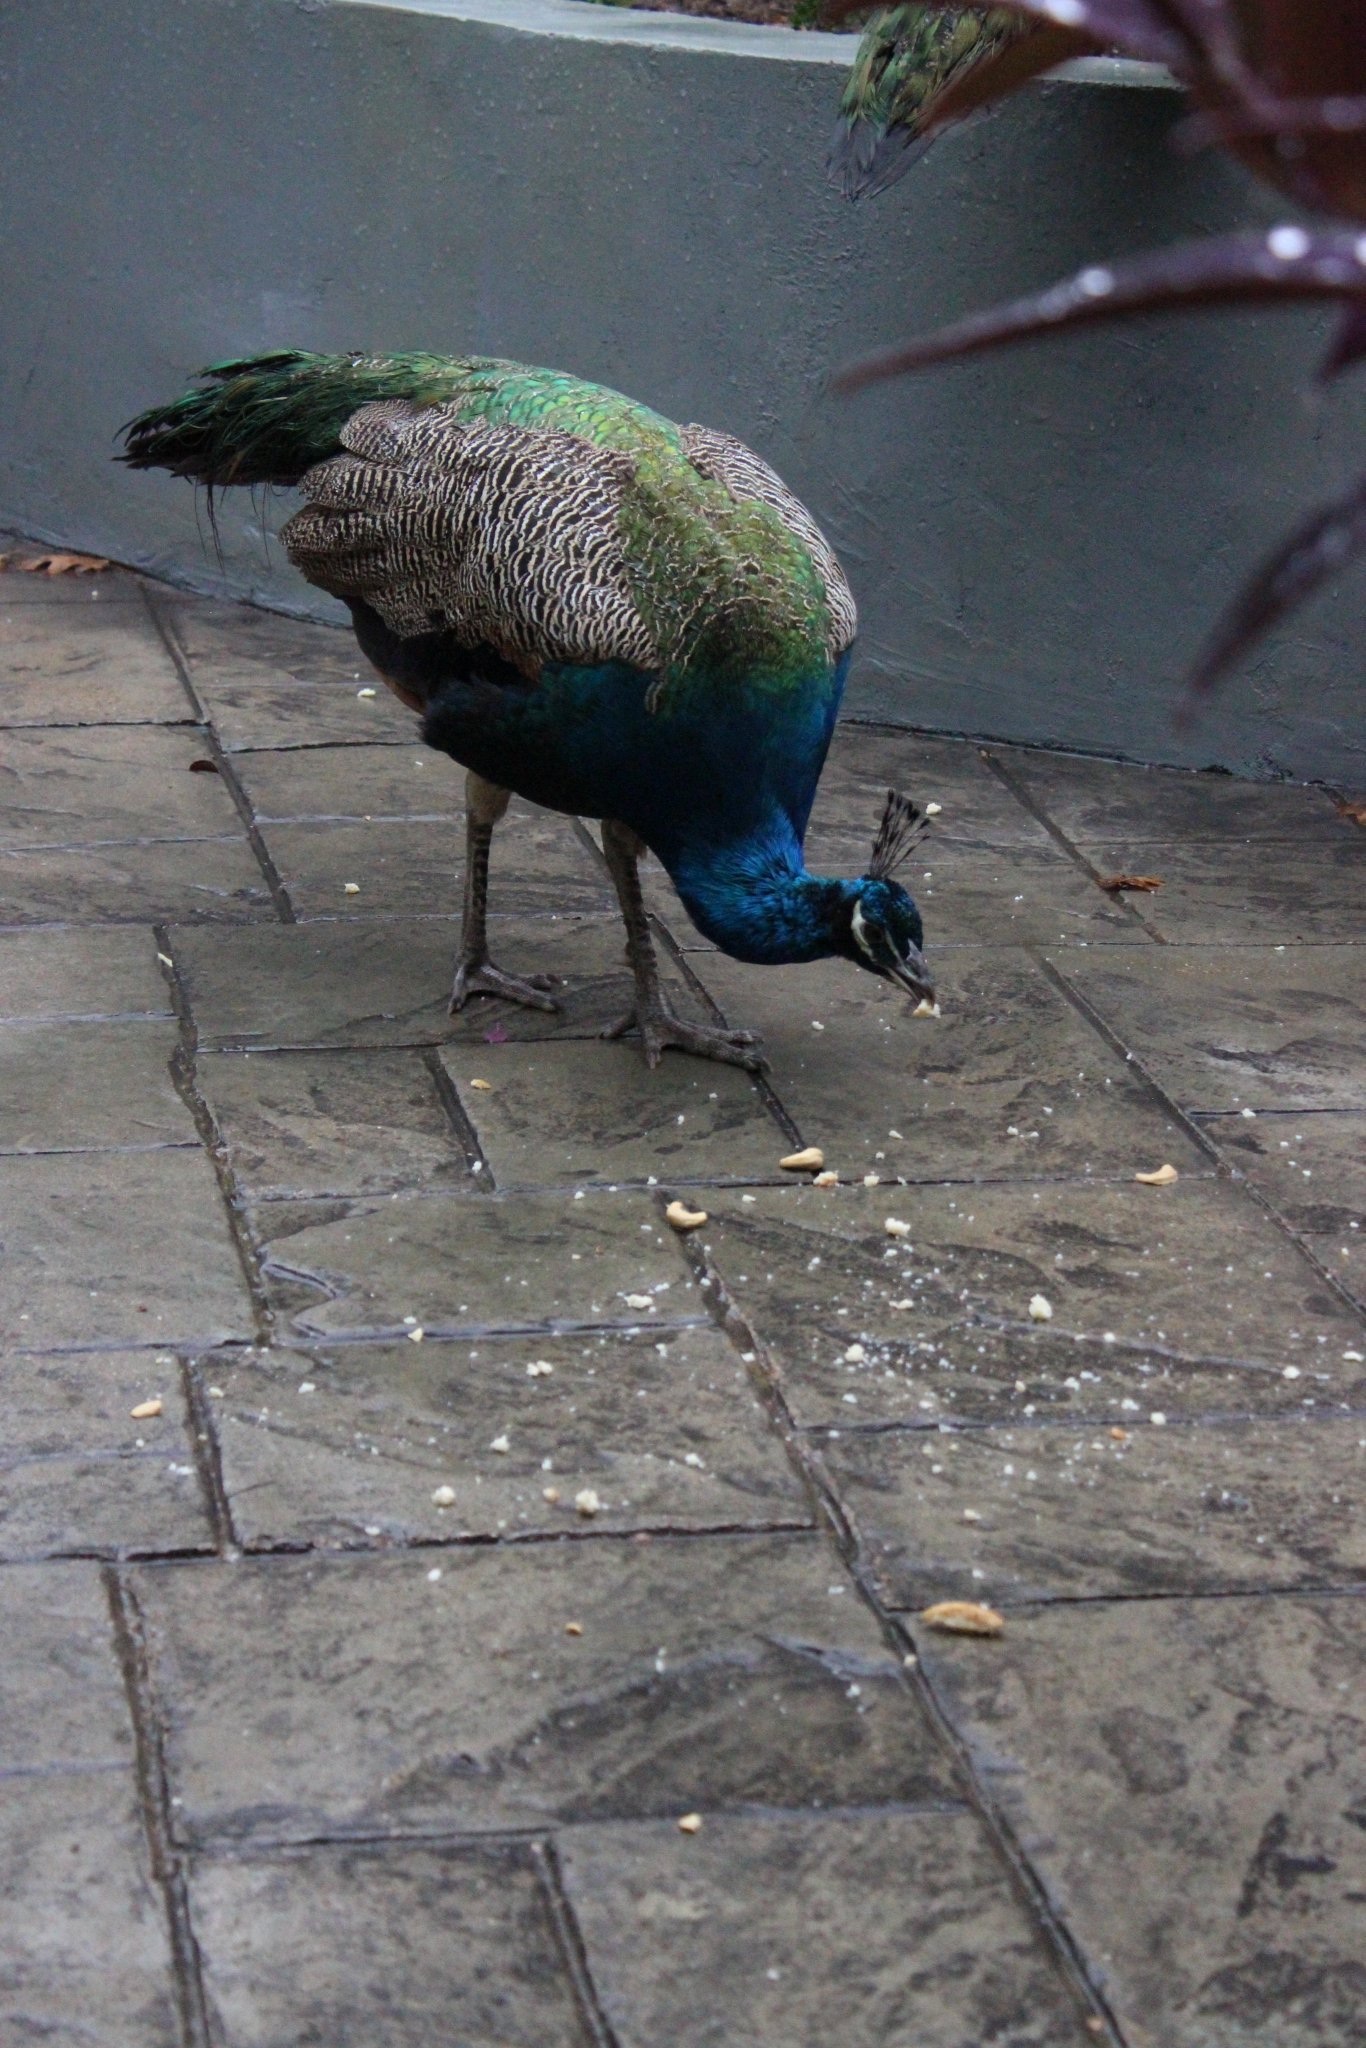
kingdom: Animalia
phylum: Chordata
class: Aves
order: Galliformes
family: Phasianidae
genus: Pavo
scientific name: Pavo cristatus
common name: Indian peafowl
